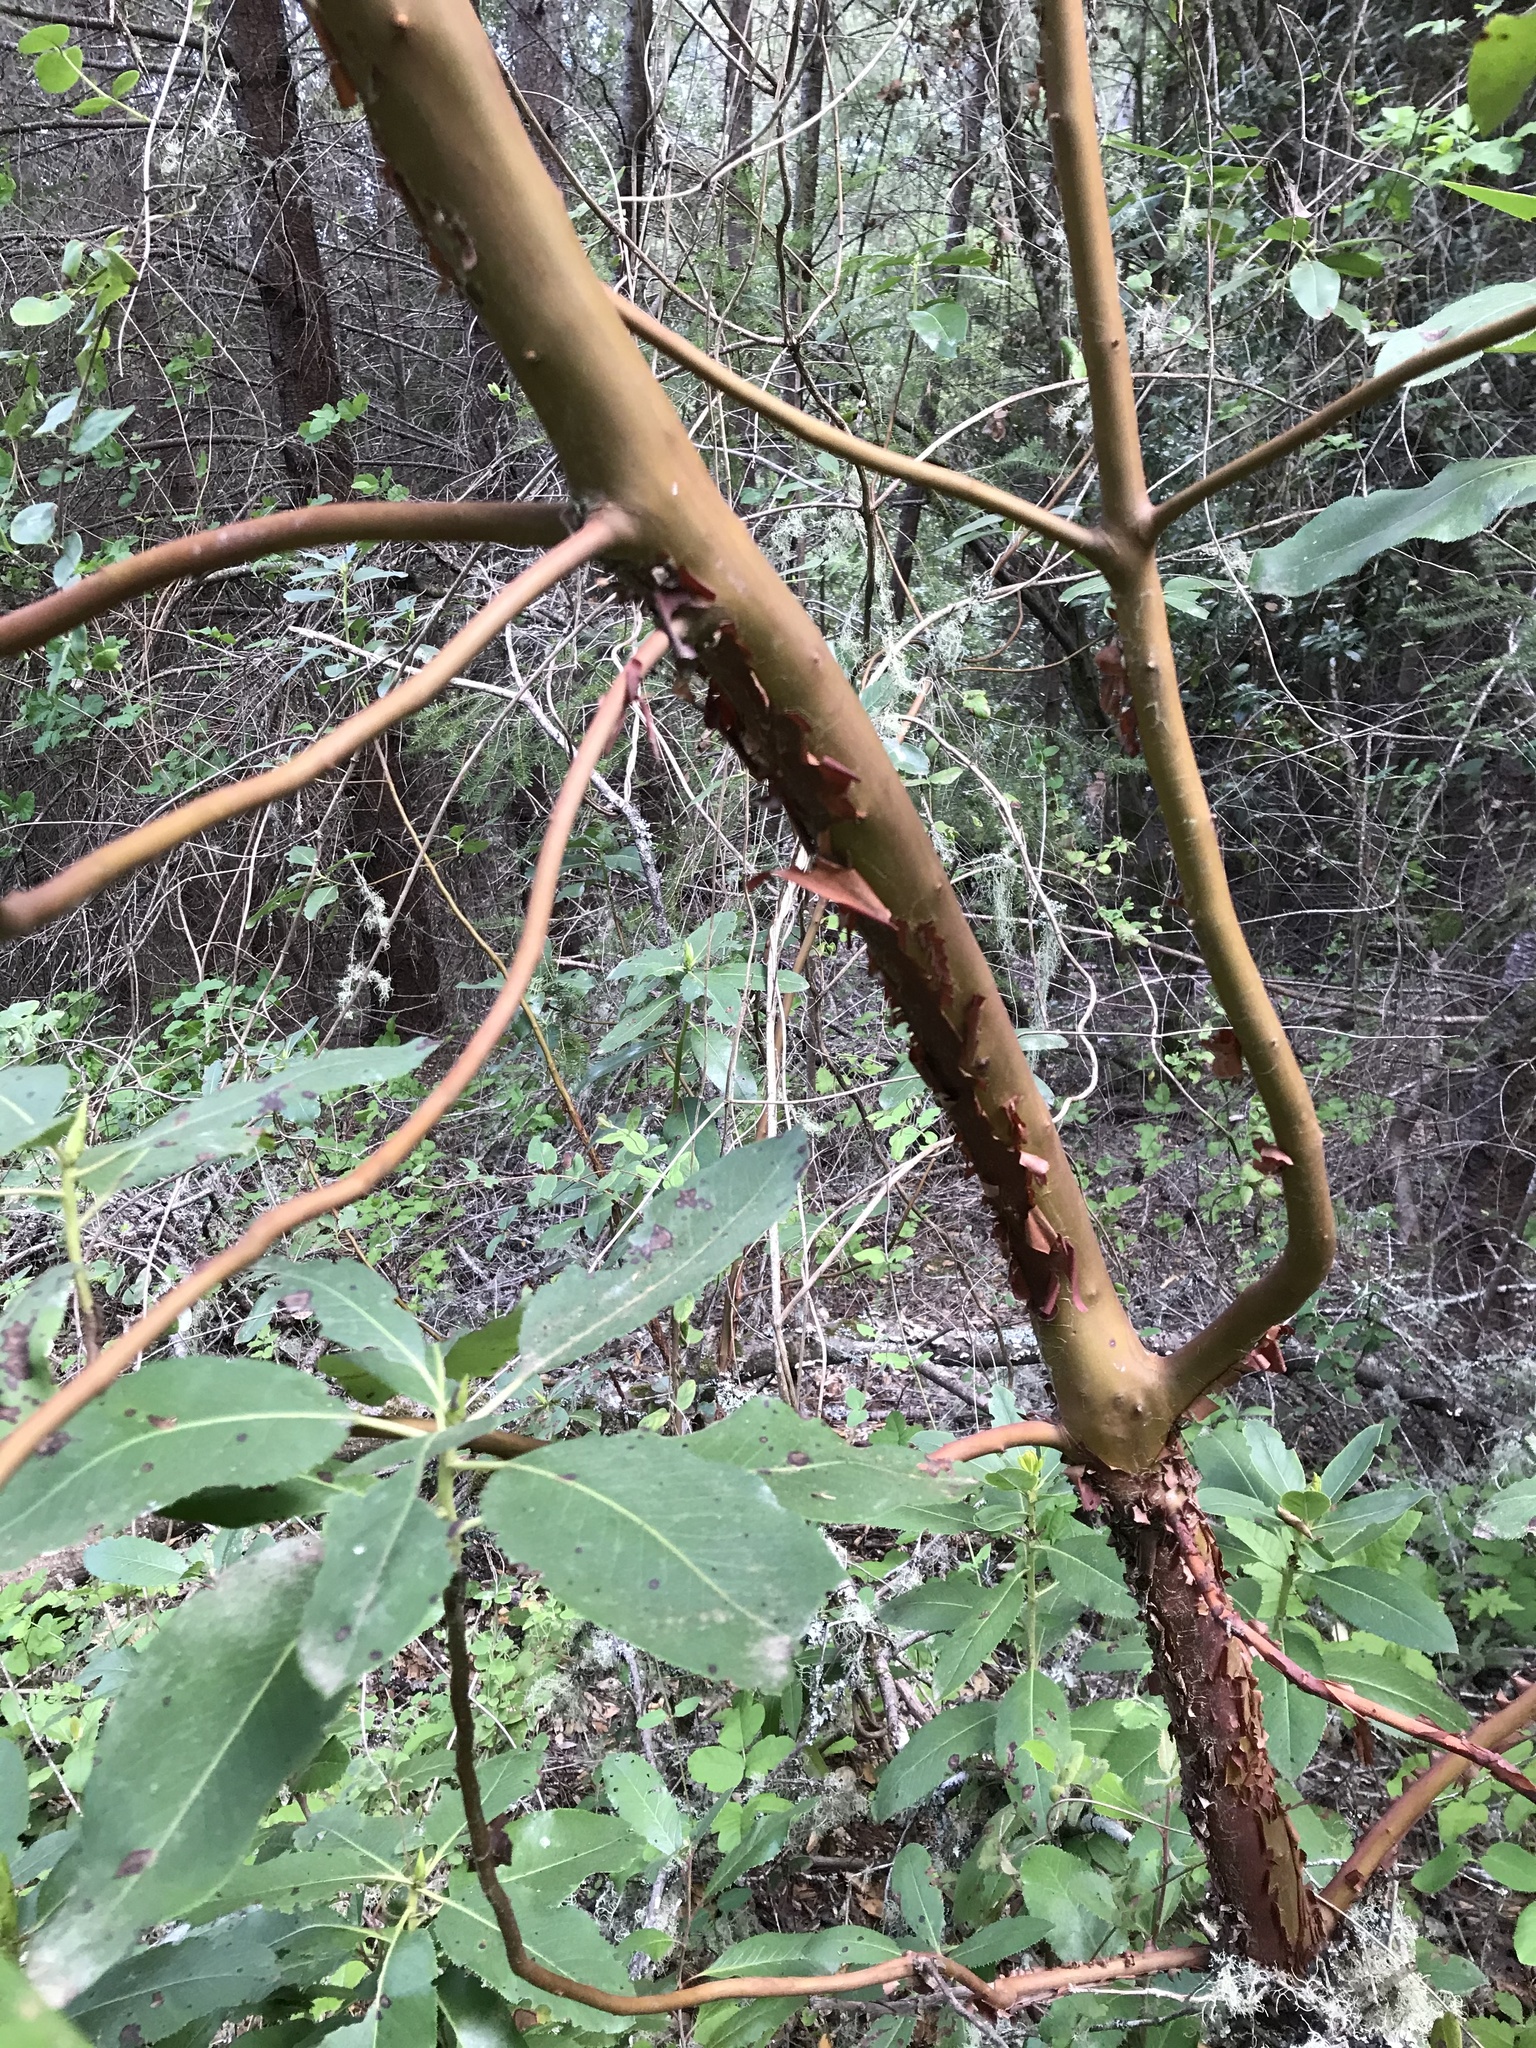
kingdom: Plantae
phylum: Tracheophyta
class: Magnoliopsida
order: Ericales
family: Ericaceae
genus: Arbutus
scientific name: Arbutus menziesii
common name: Pacific madrone
